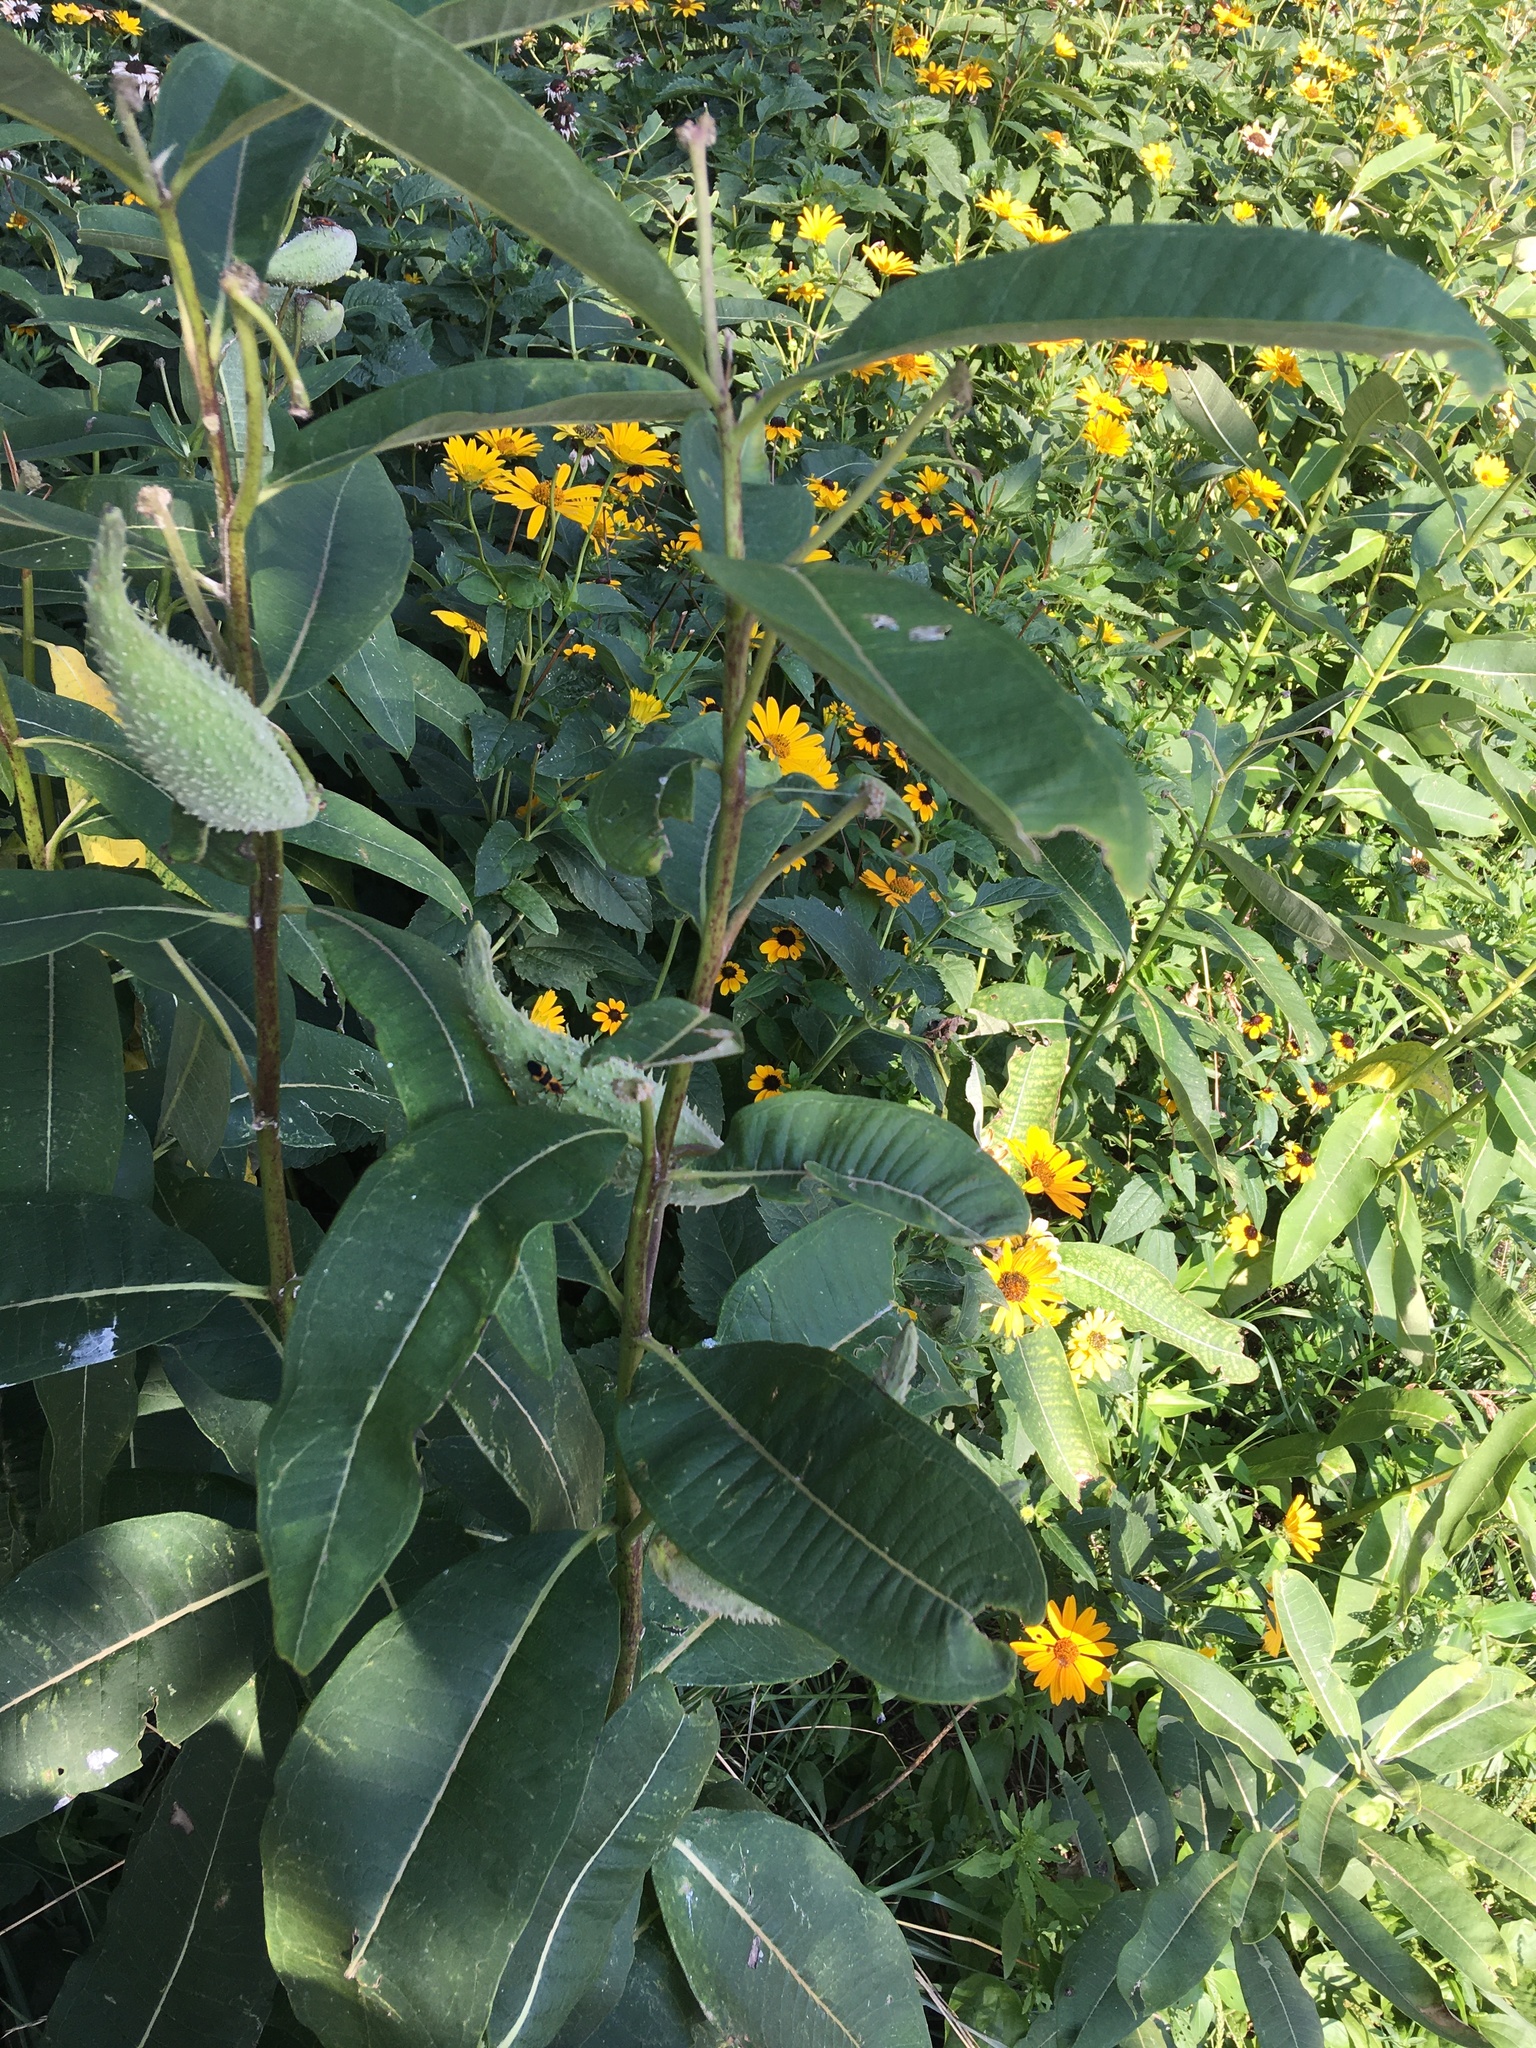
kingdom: Plantae
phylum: Tracheophyta
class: Magnoliopsida
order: Gentianales
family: Apocynaceae
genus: Asclepias
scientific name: Asclepias syriaca
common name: Common milkweed
